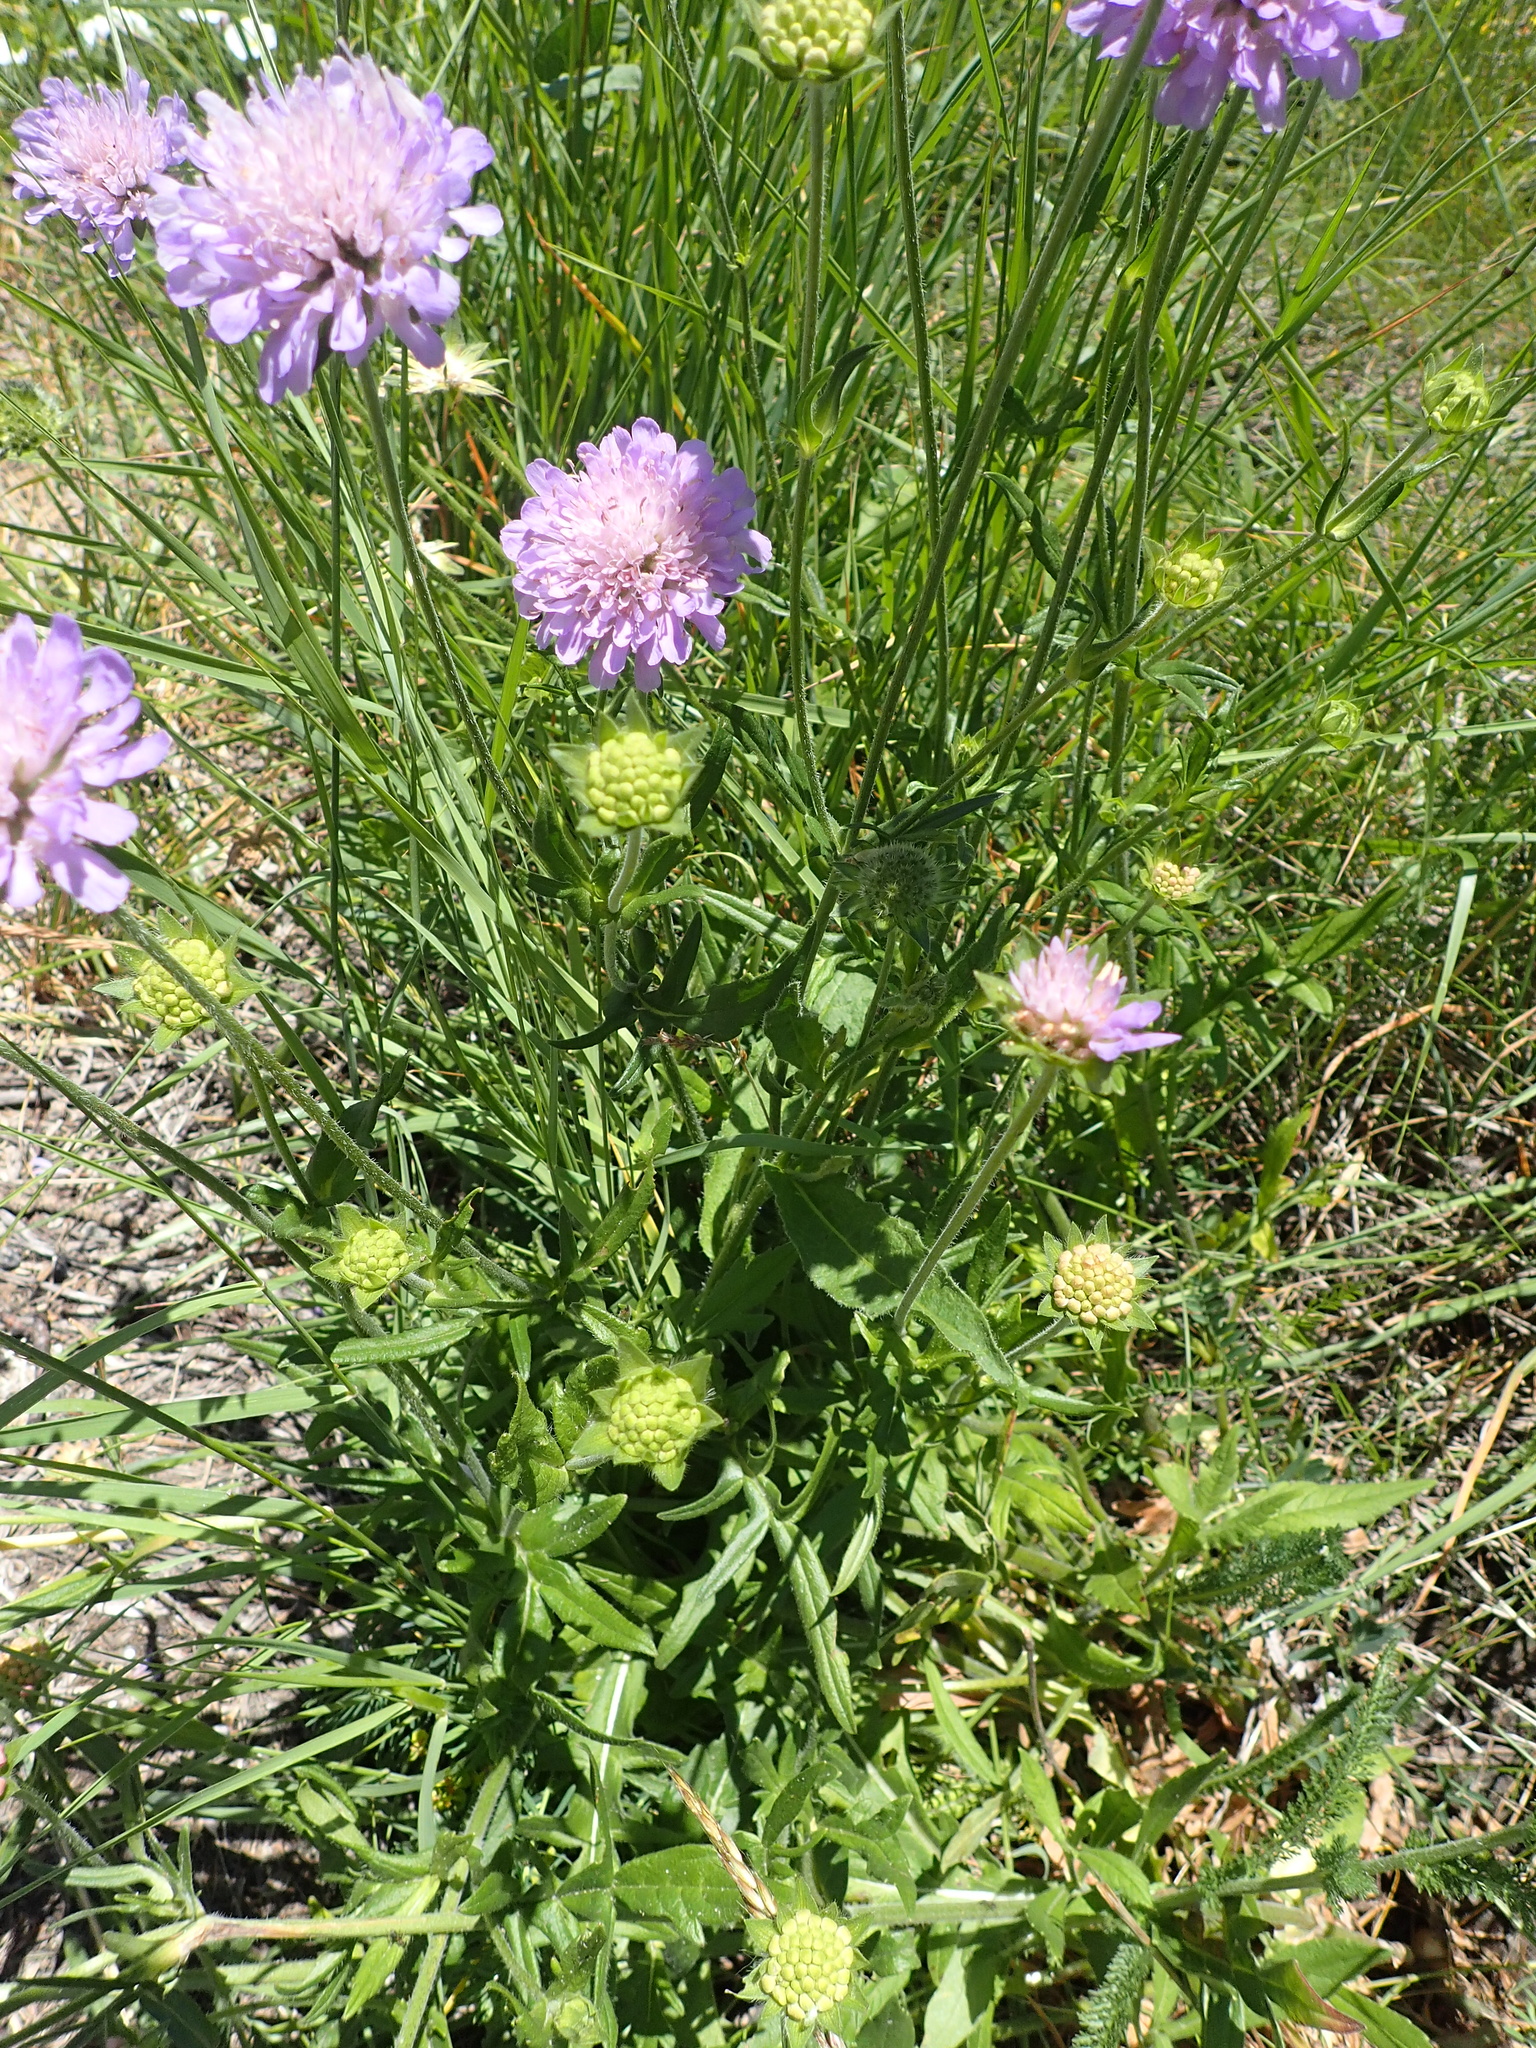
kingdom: Plantae
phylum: Tracheophyta
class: Magnoliopsida
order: Dipsacales
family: Caprifoliaceae
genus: Knautia
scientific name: Knautia arvensis
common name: Field scabiosa
